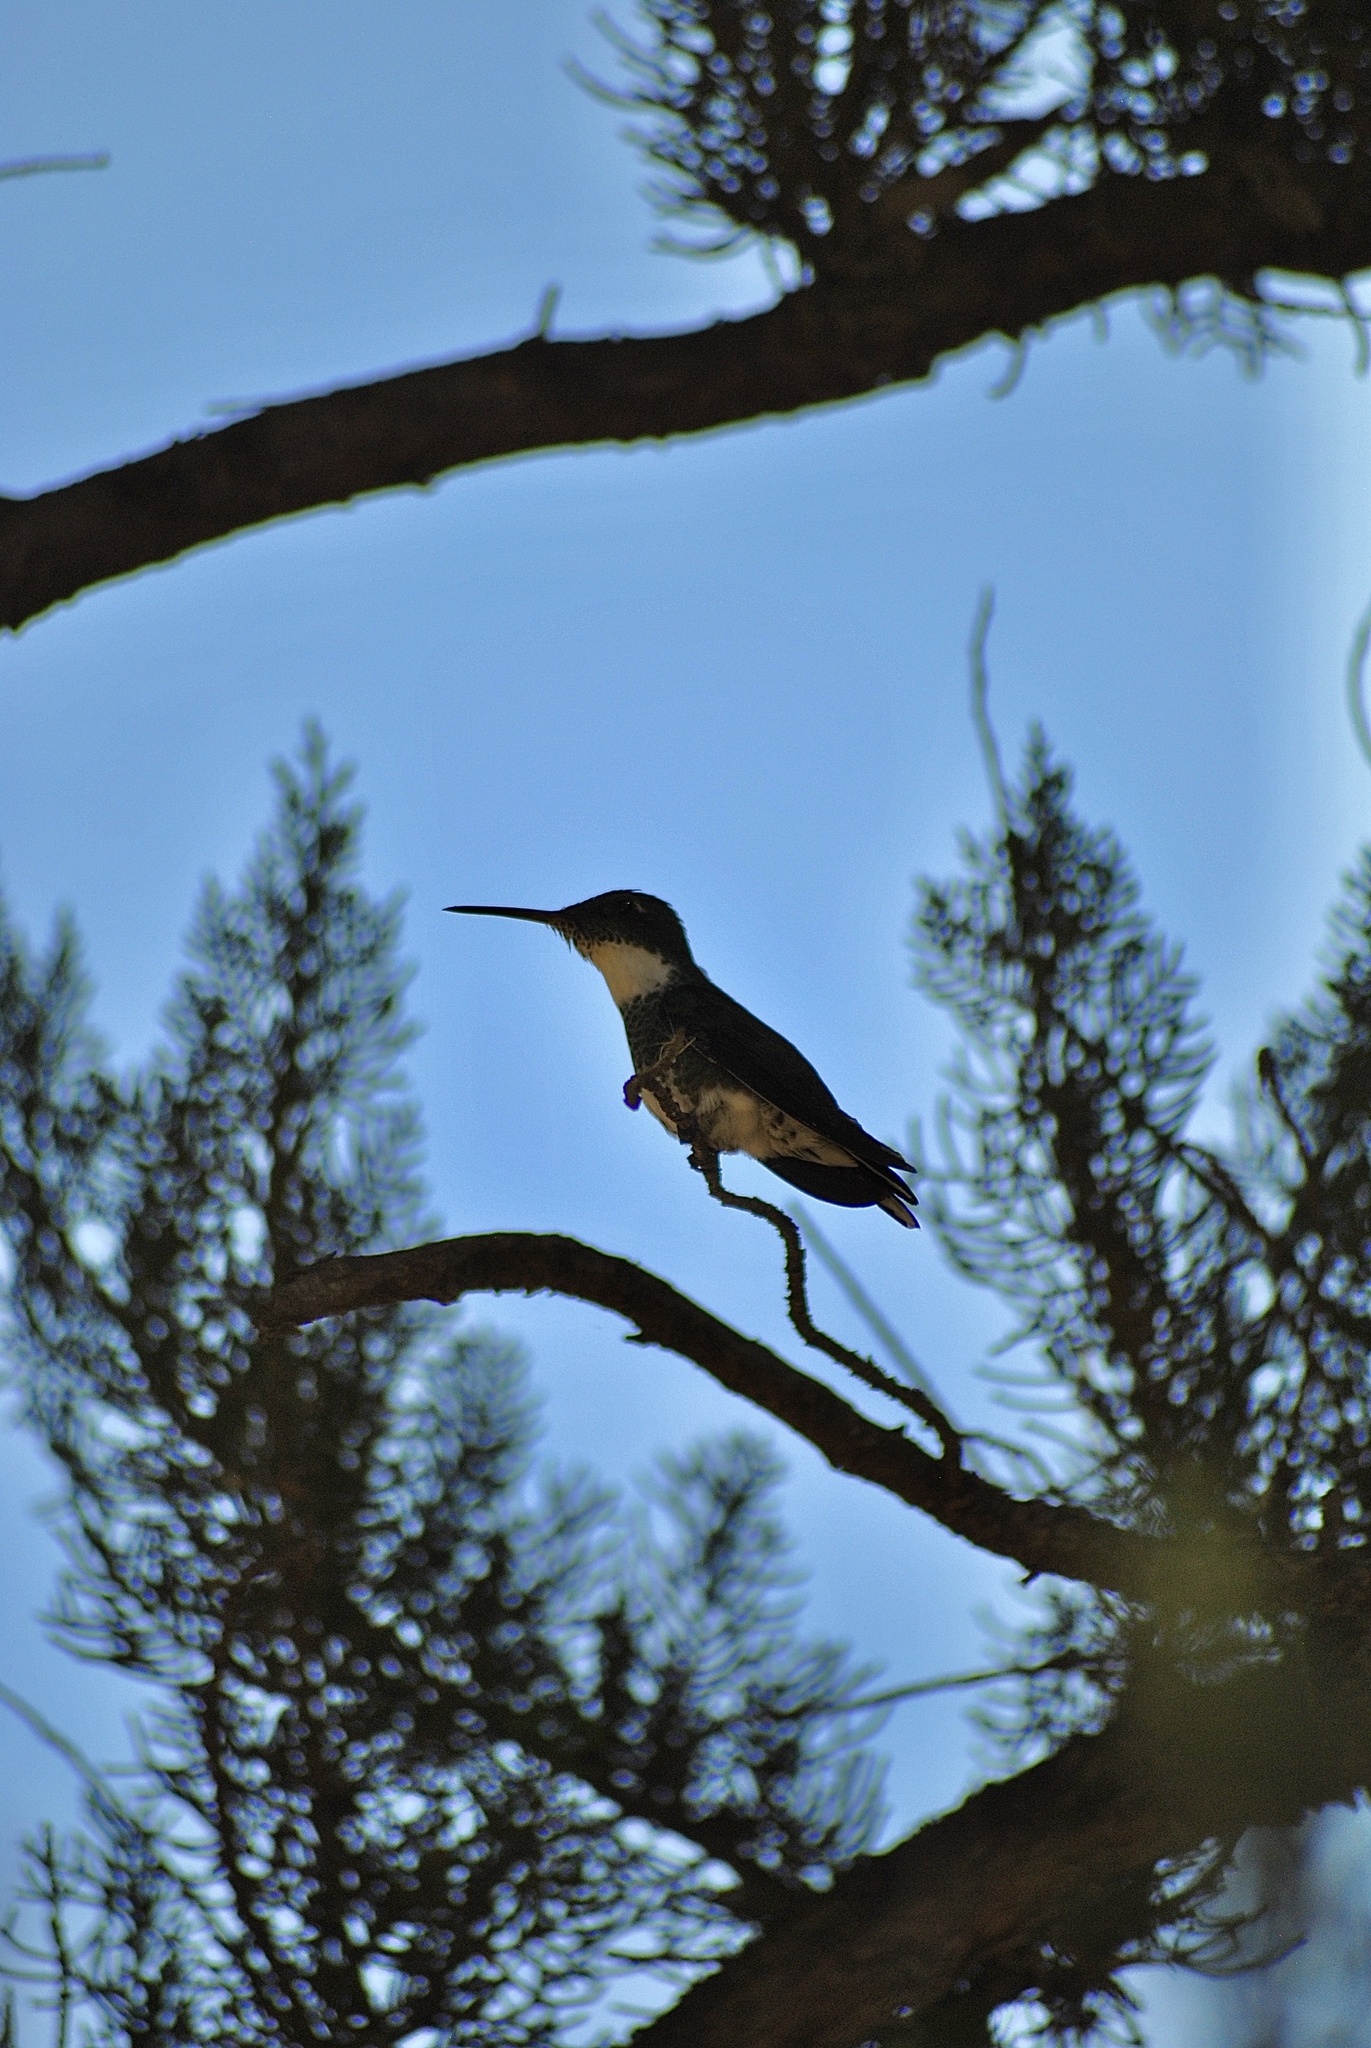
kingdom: Animalia
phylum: Chordata
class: Aves
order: Apodiformes
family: Trochilidae
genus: Leucochloris
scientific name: Leucochloris albicollis
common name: White-throated hummingbird
